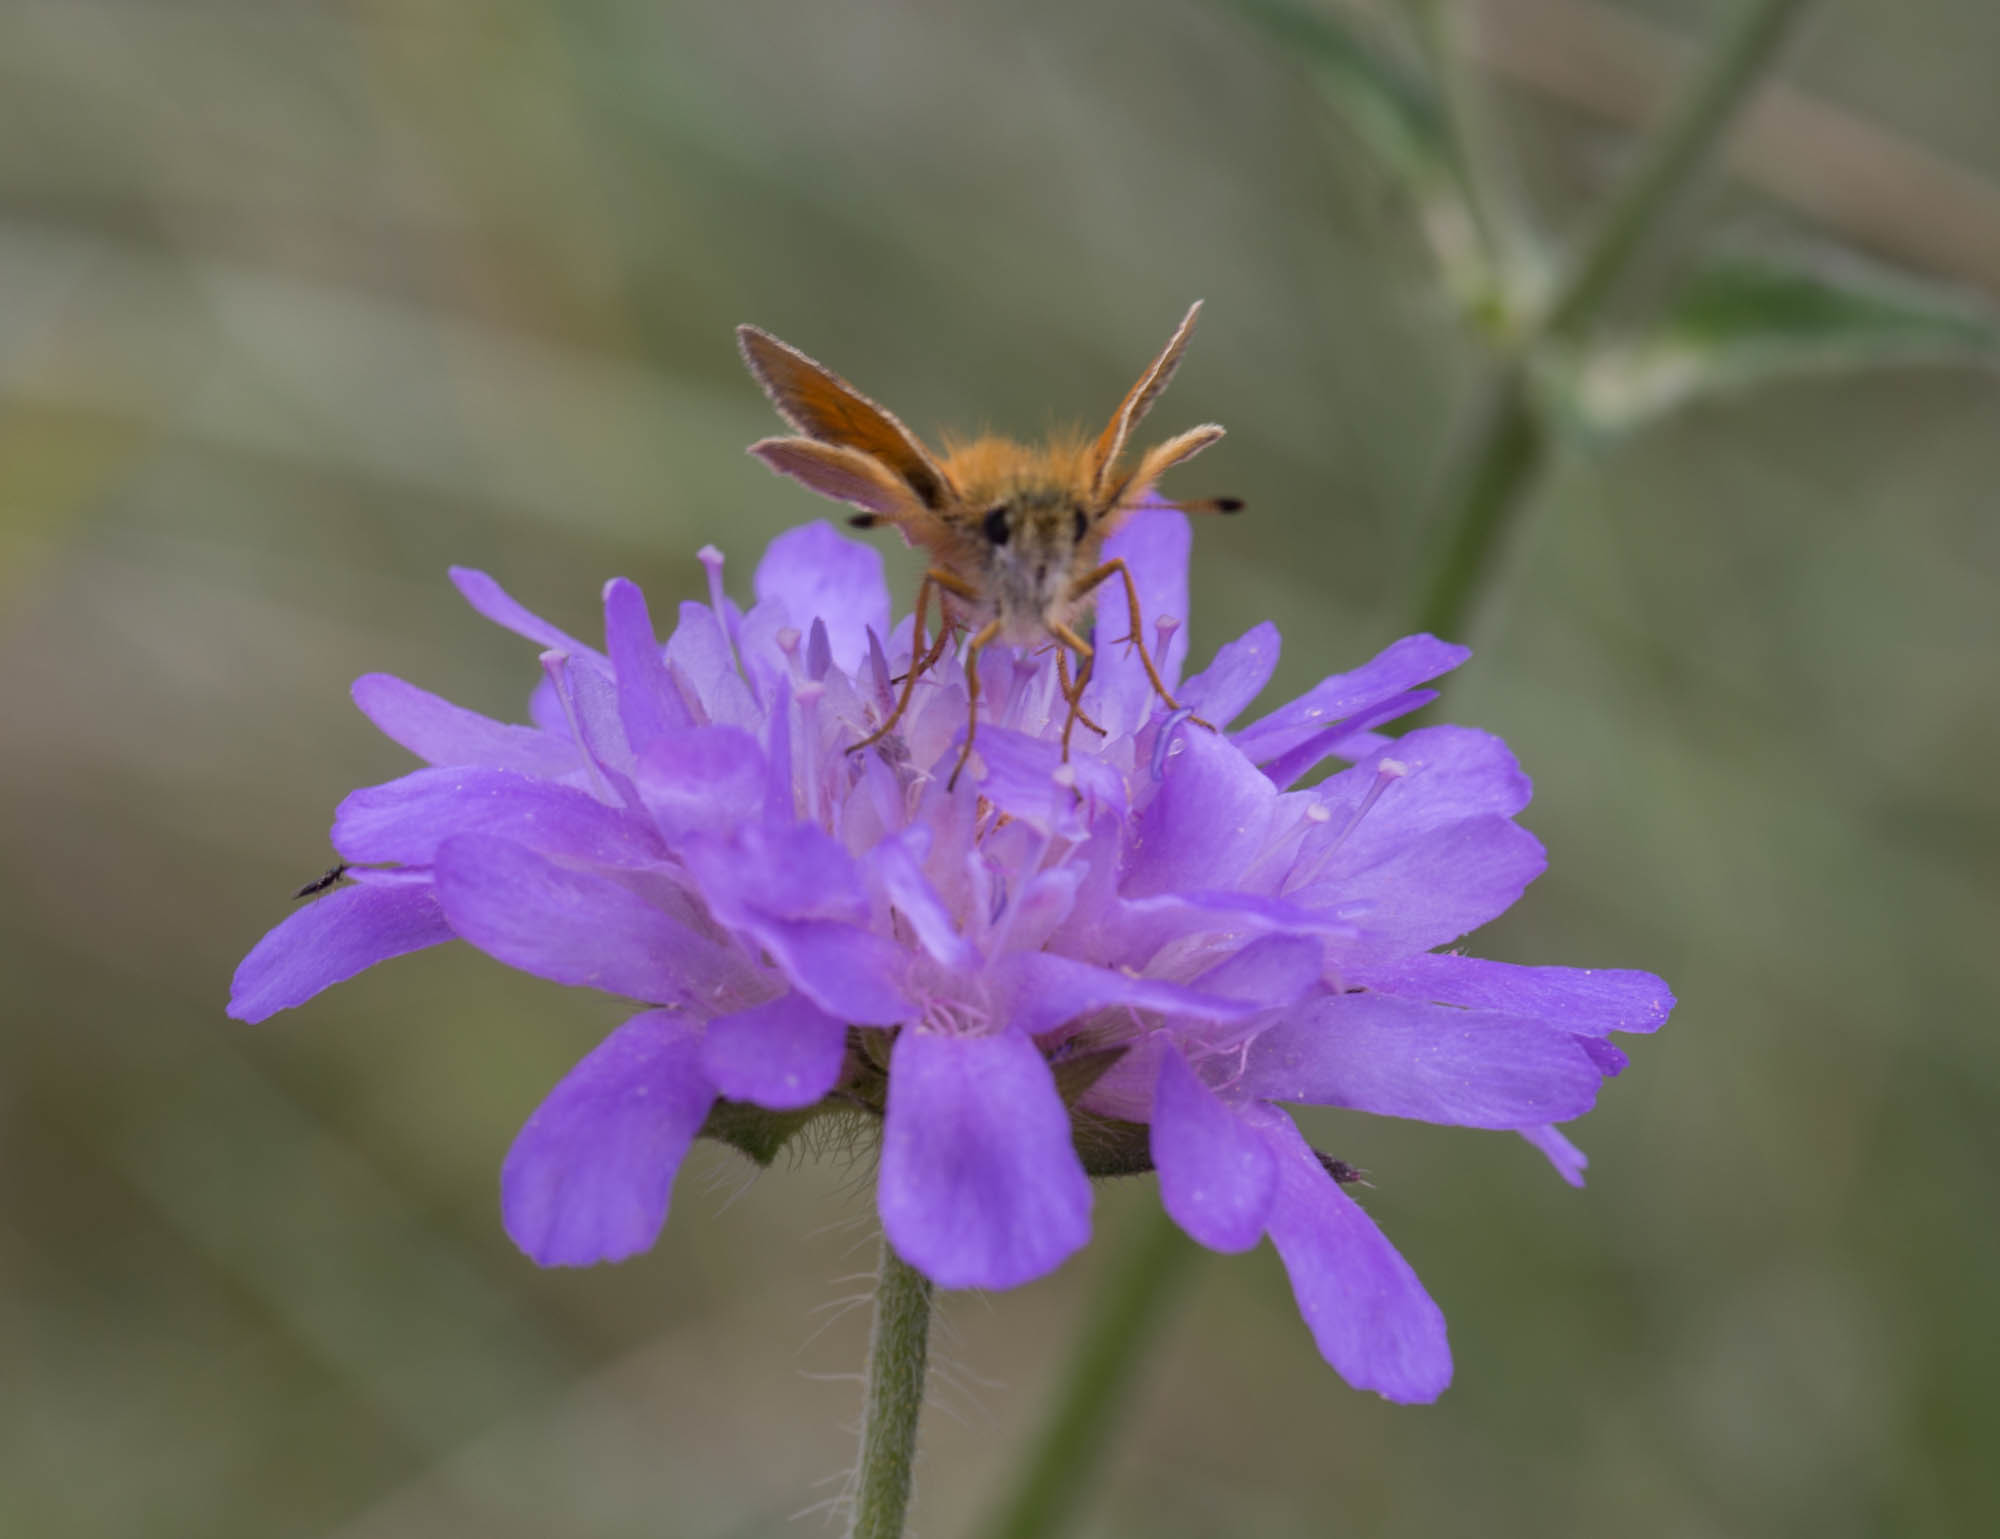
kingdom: Animalia
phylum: Arthropoda
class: Insecta
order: Lepidoptera
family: Hesperiidae
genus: Thymelicus
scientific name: Thymelicus lineola
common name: Essex skipper
